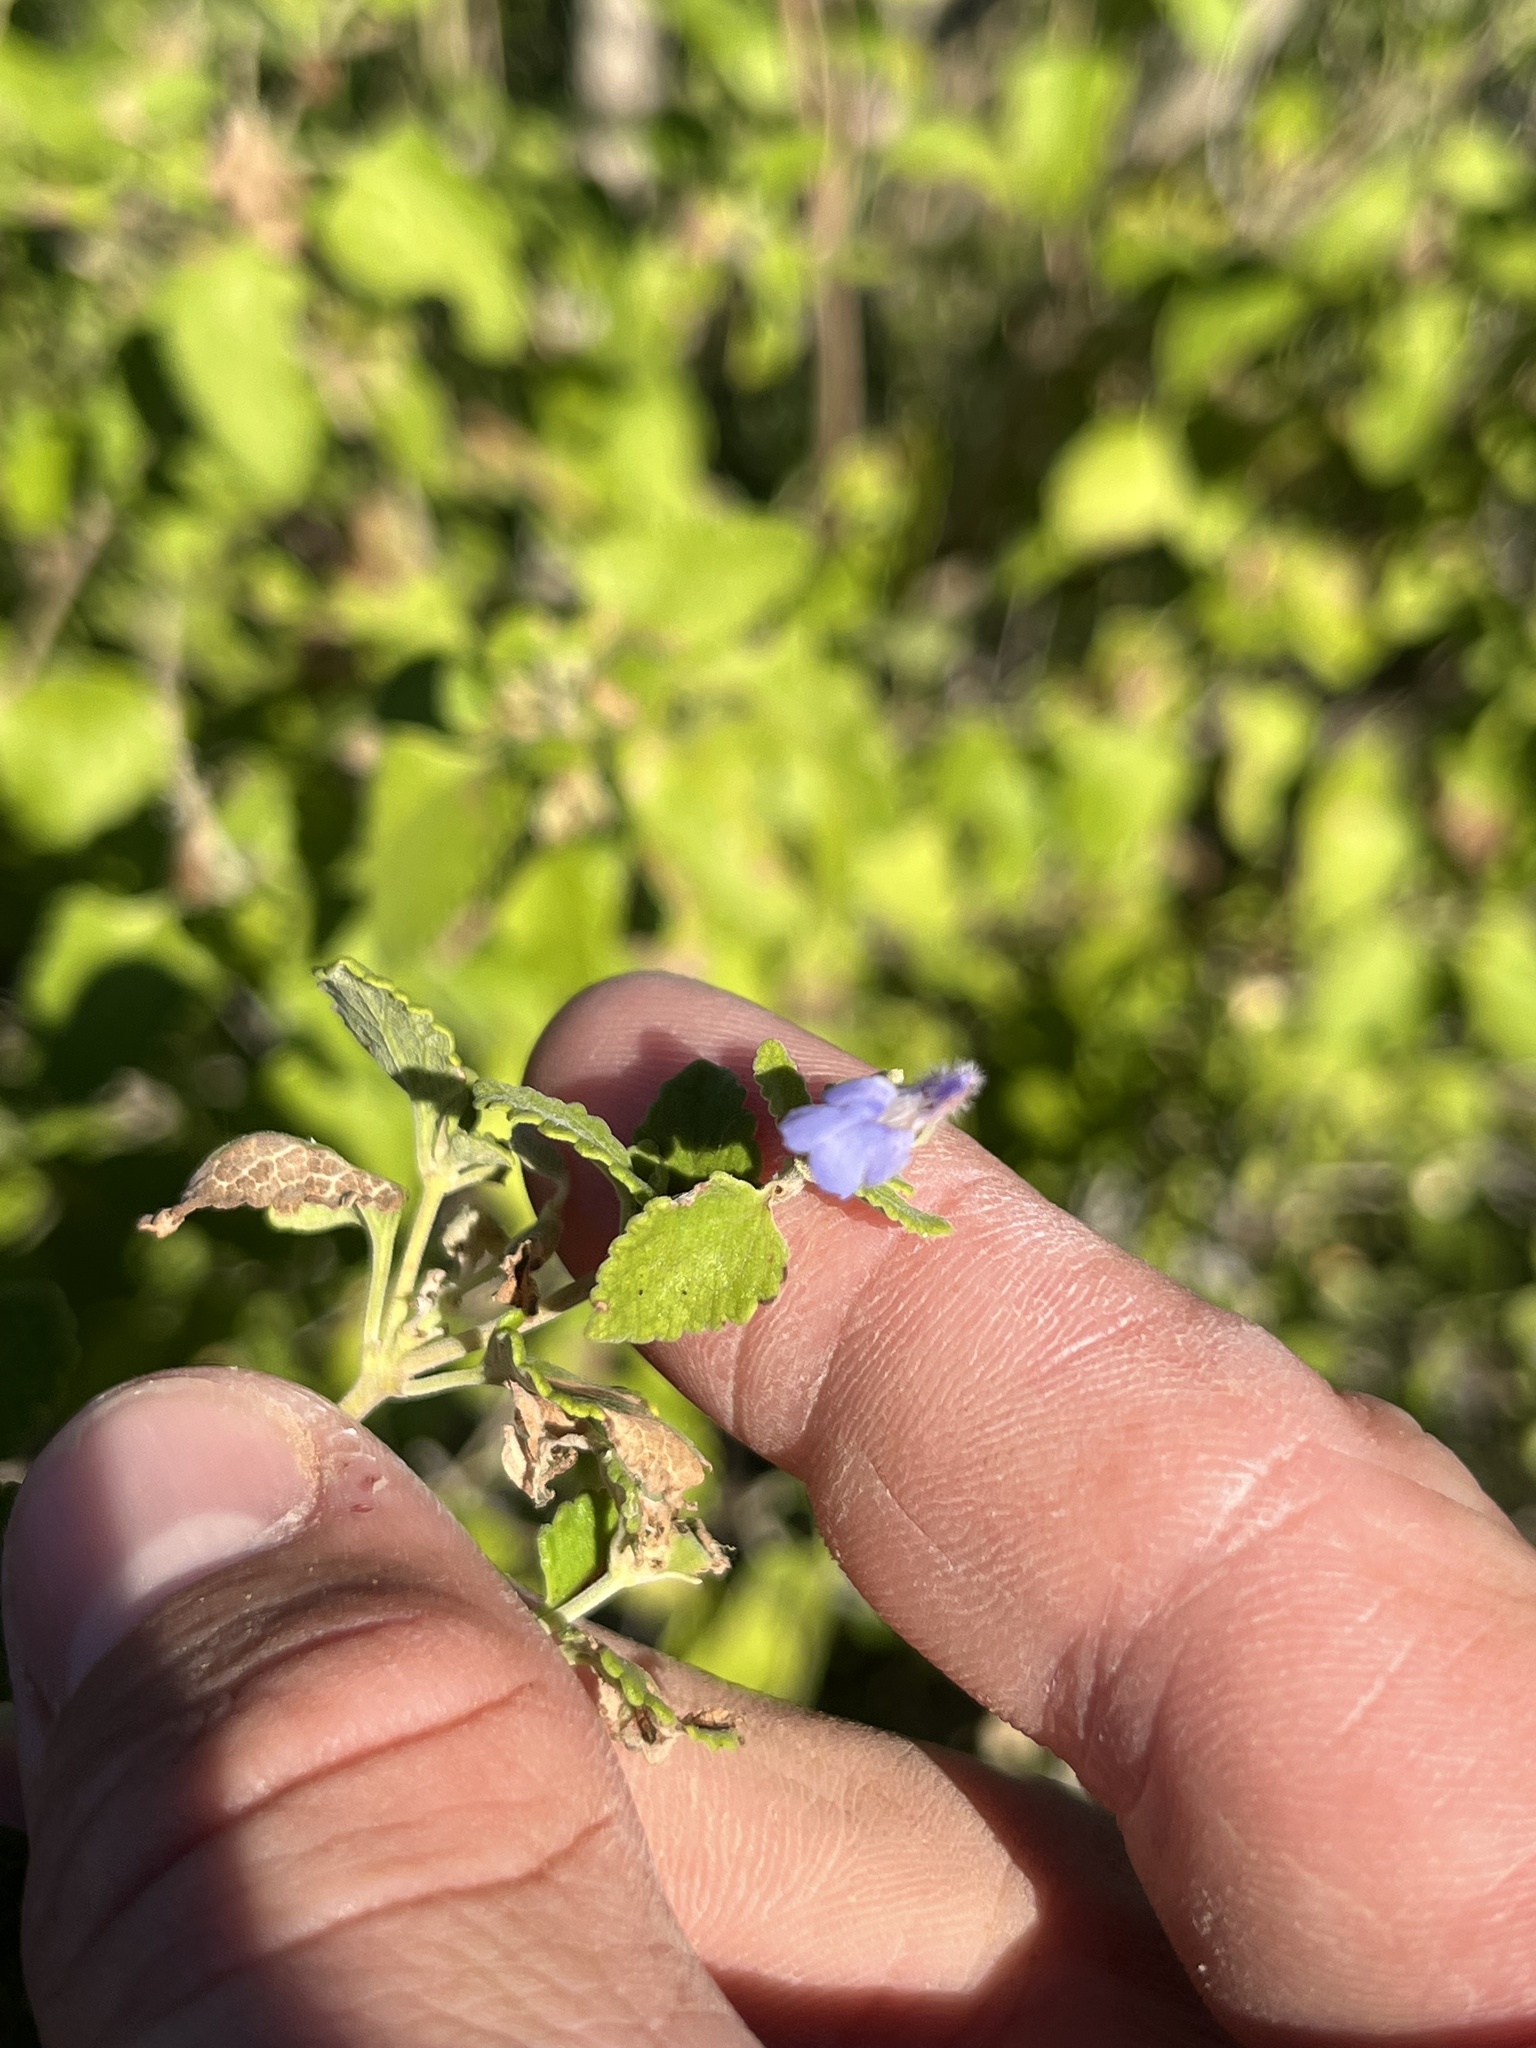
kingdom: Plantae
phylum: Tracheophyta
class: Magnoliopsida
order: Lamiales
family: Lamiaceae
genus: Salvia
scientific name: Salvia ballotiflora
